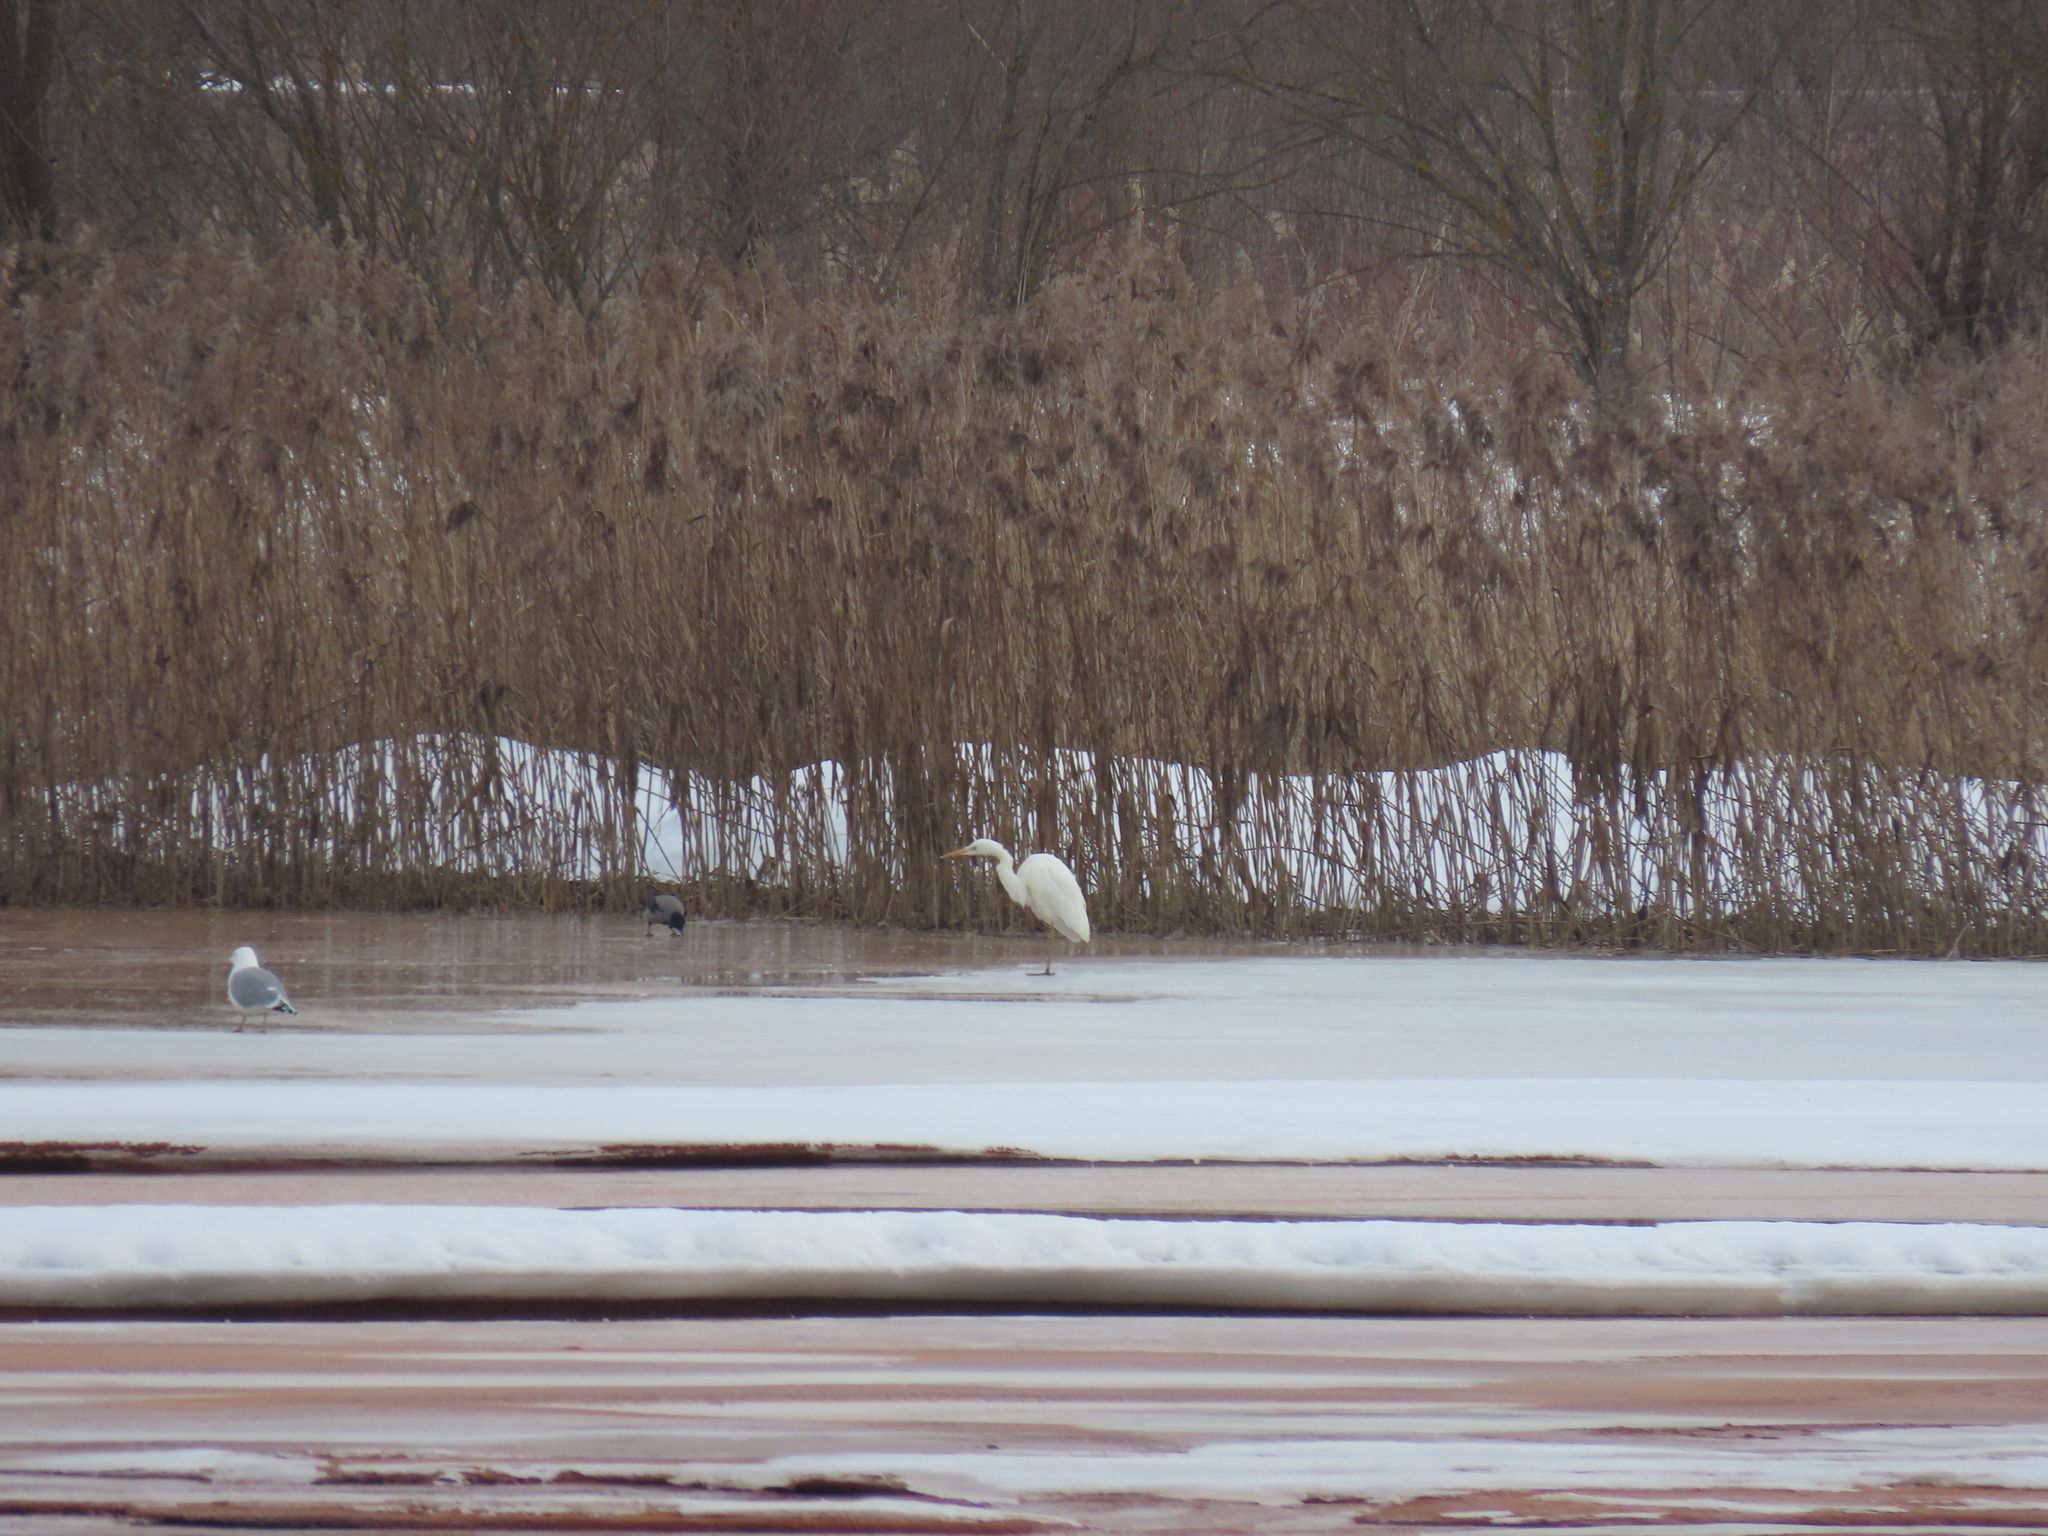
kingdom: Animalia
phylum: Chordata
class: Aves
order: Pelecaniformes
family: Ardeidae
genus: Ardea
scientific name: Ardea alba
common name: Great egret
